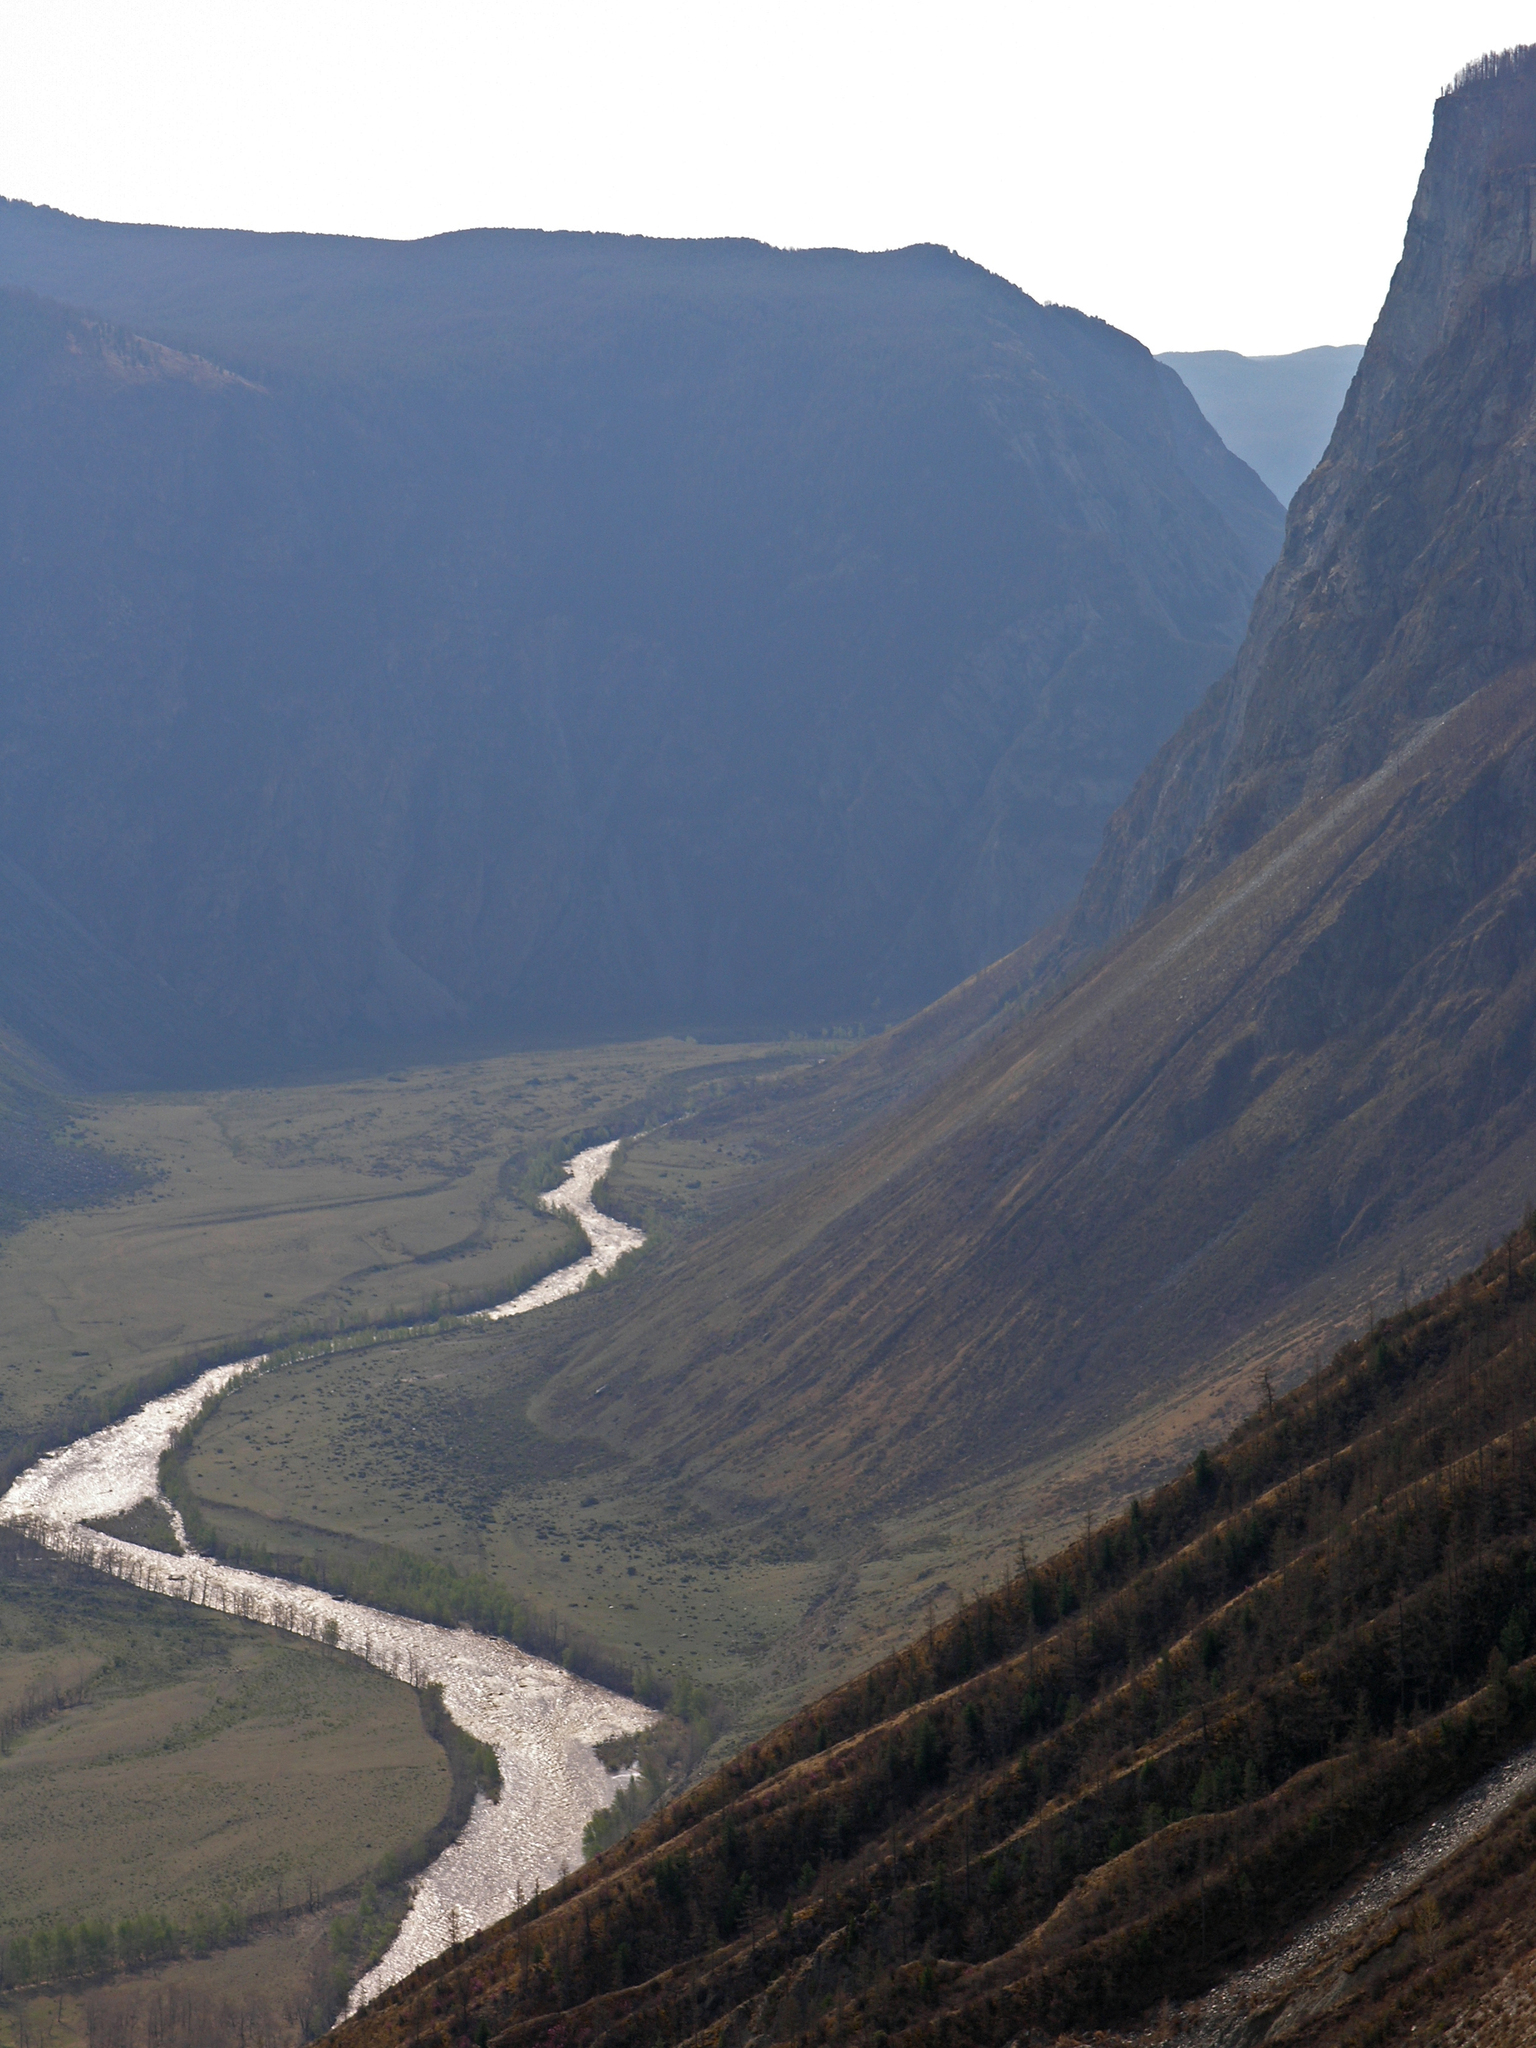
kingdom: Plantae
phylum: Tracheophyta
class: Pinopsida
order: Pinales
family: Pinaceae
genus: Larix
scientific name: Larix sibirica
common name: Siberian larch
